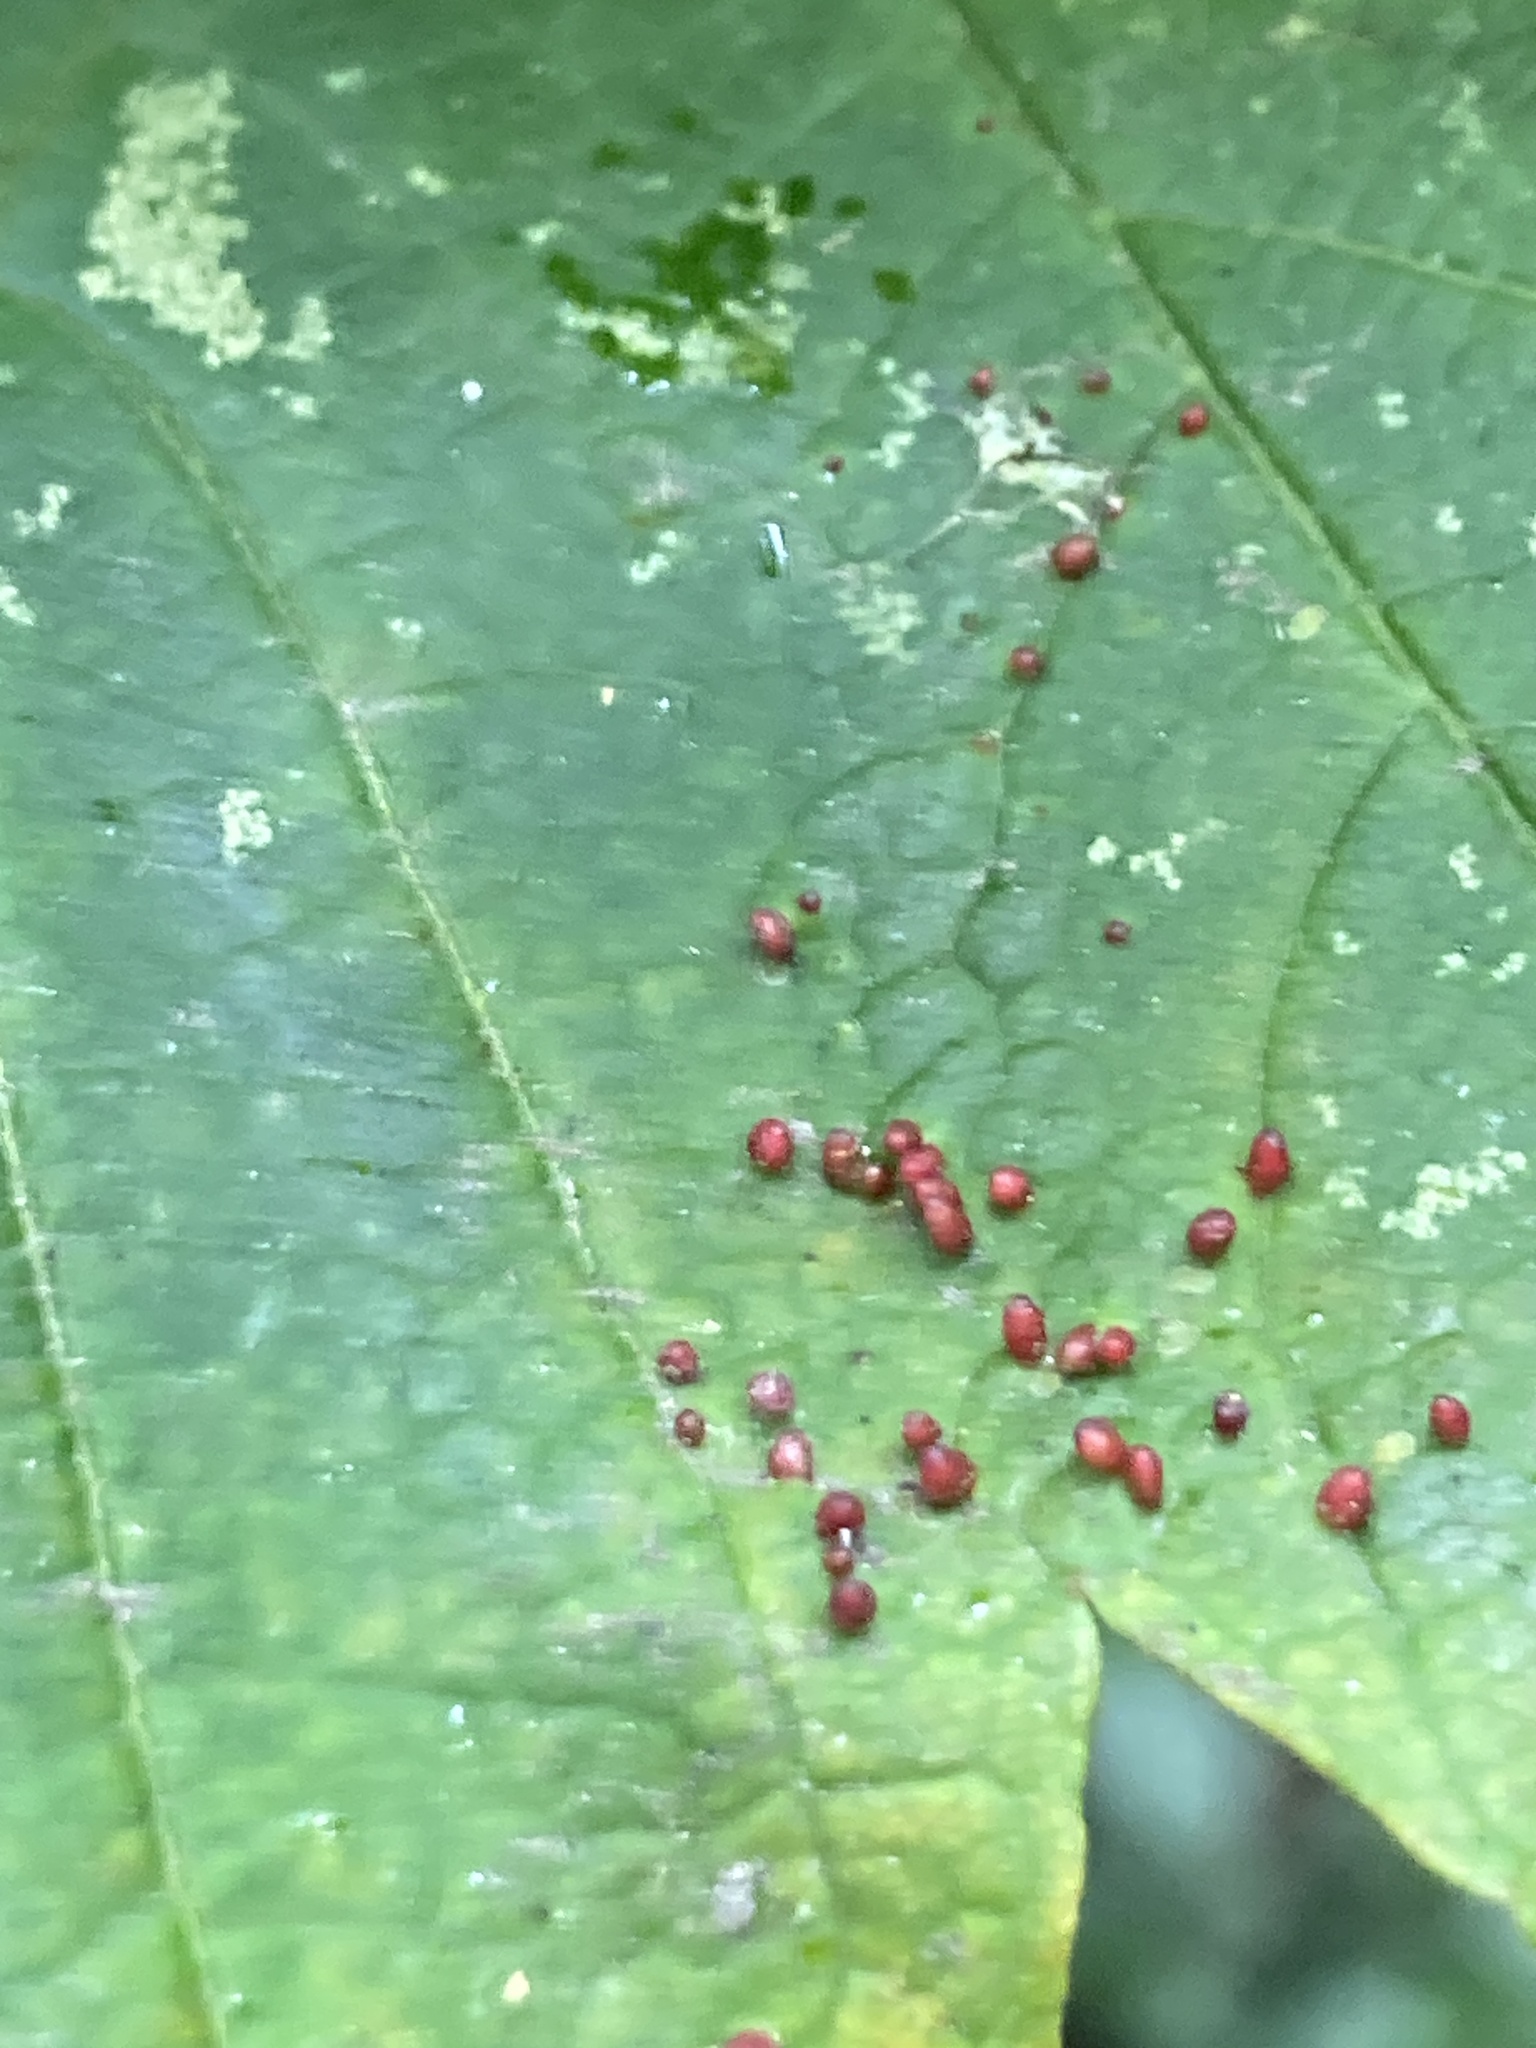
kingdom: Animalia
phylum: Arthropoda
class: Arachnida
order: Trombidiformes
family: Eriophyidae
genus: Aceria
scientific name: Aceria cephaloneus
